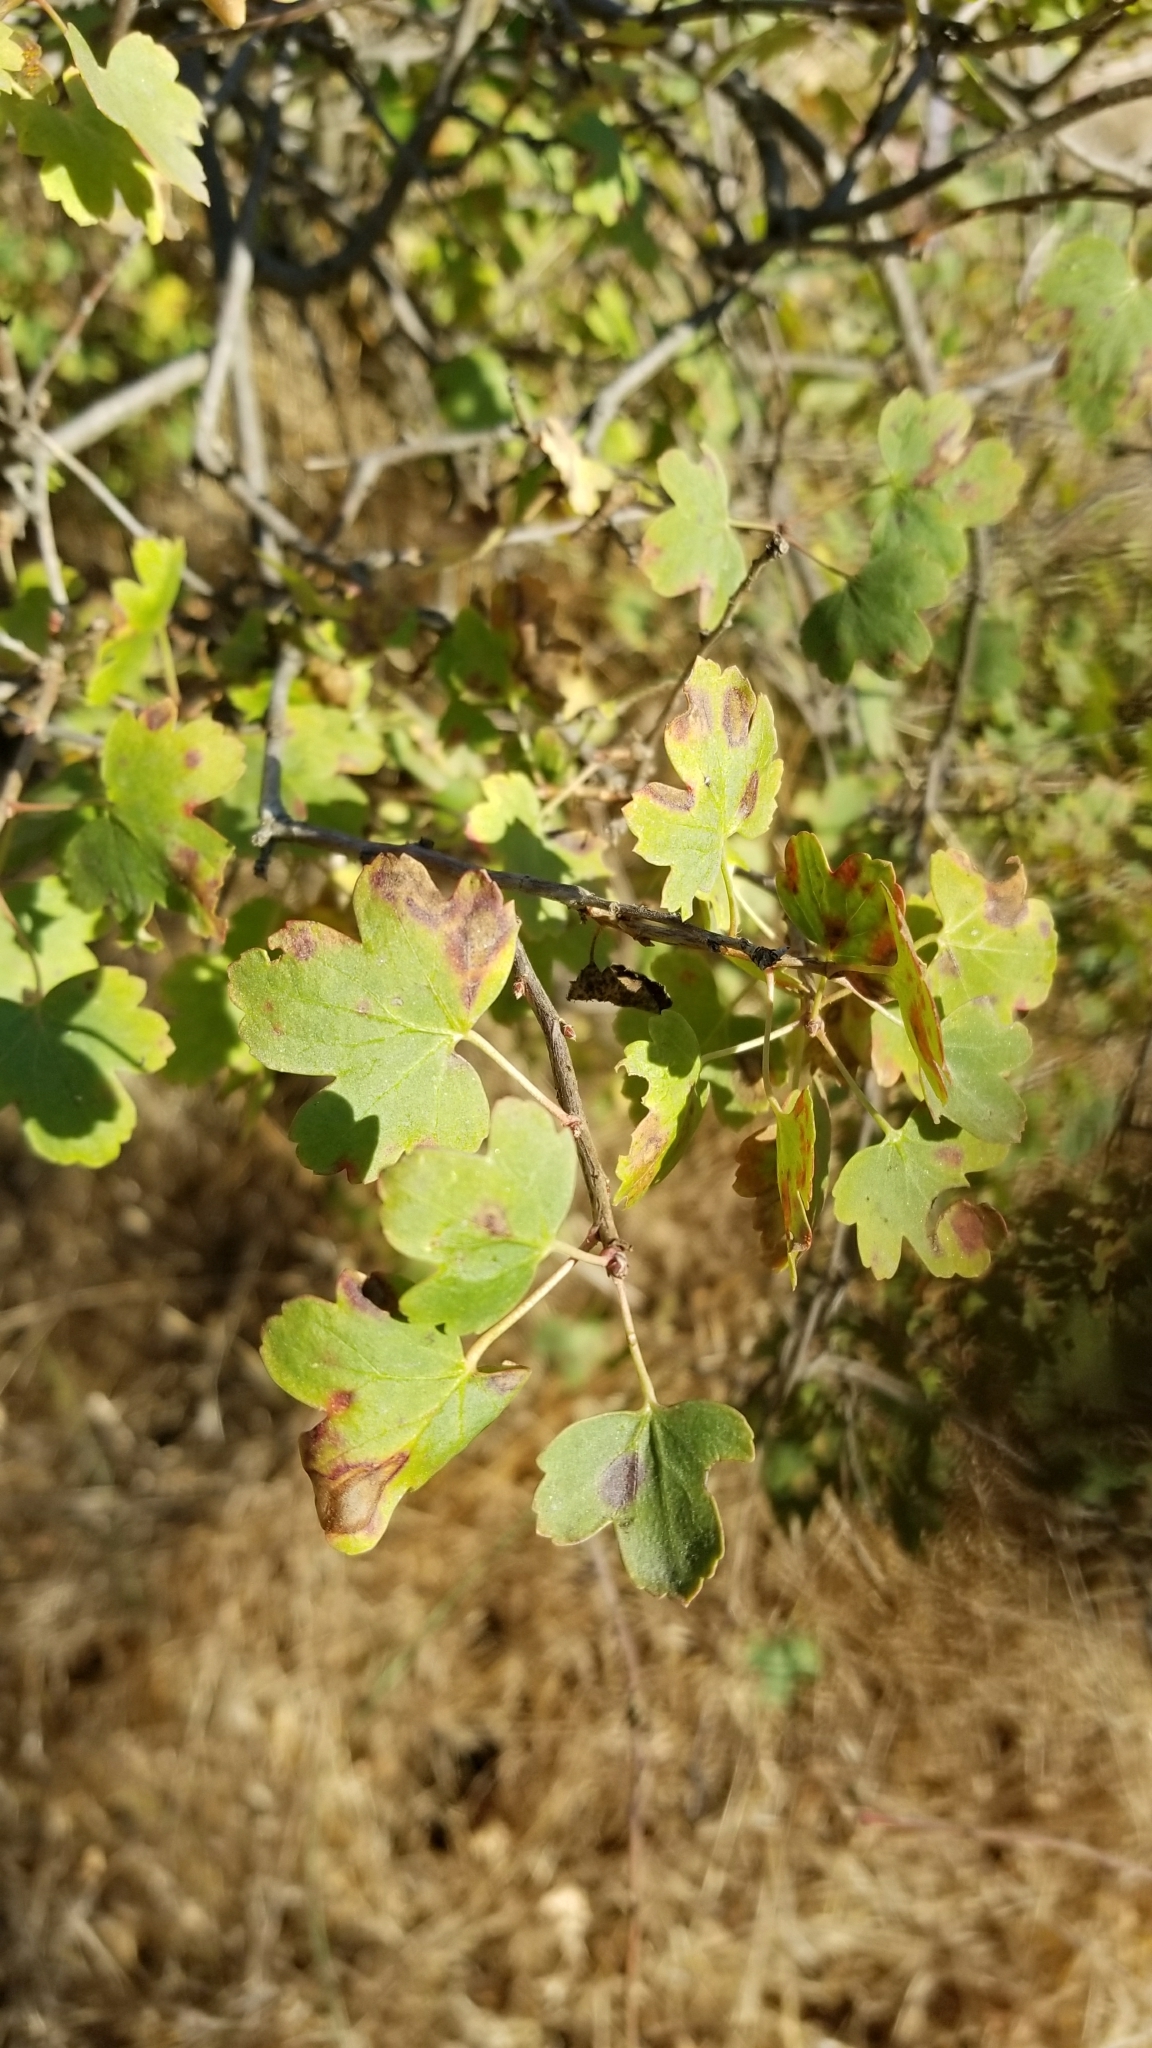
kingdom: Plantae
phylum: Tracheophyta
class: Magnoliopsida
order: Saxifragales
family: Grossulariaceae
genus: Ribes
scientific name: Ribes aureum
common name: Golden currant
